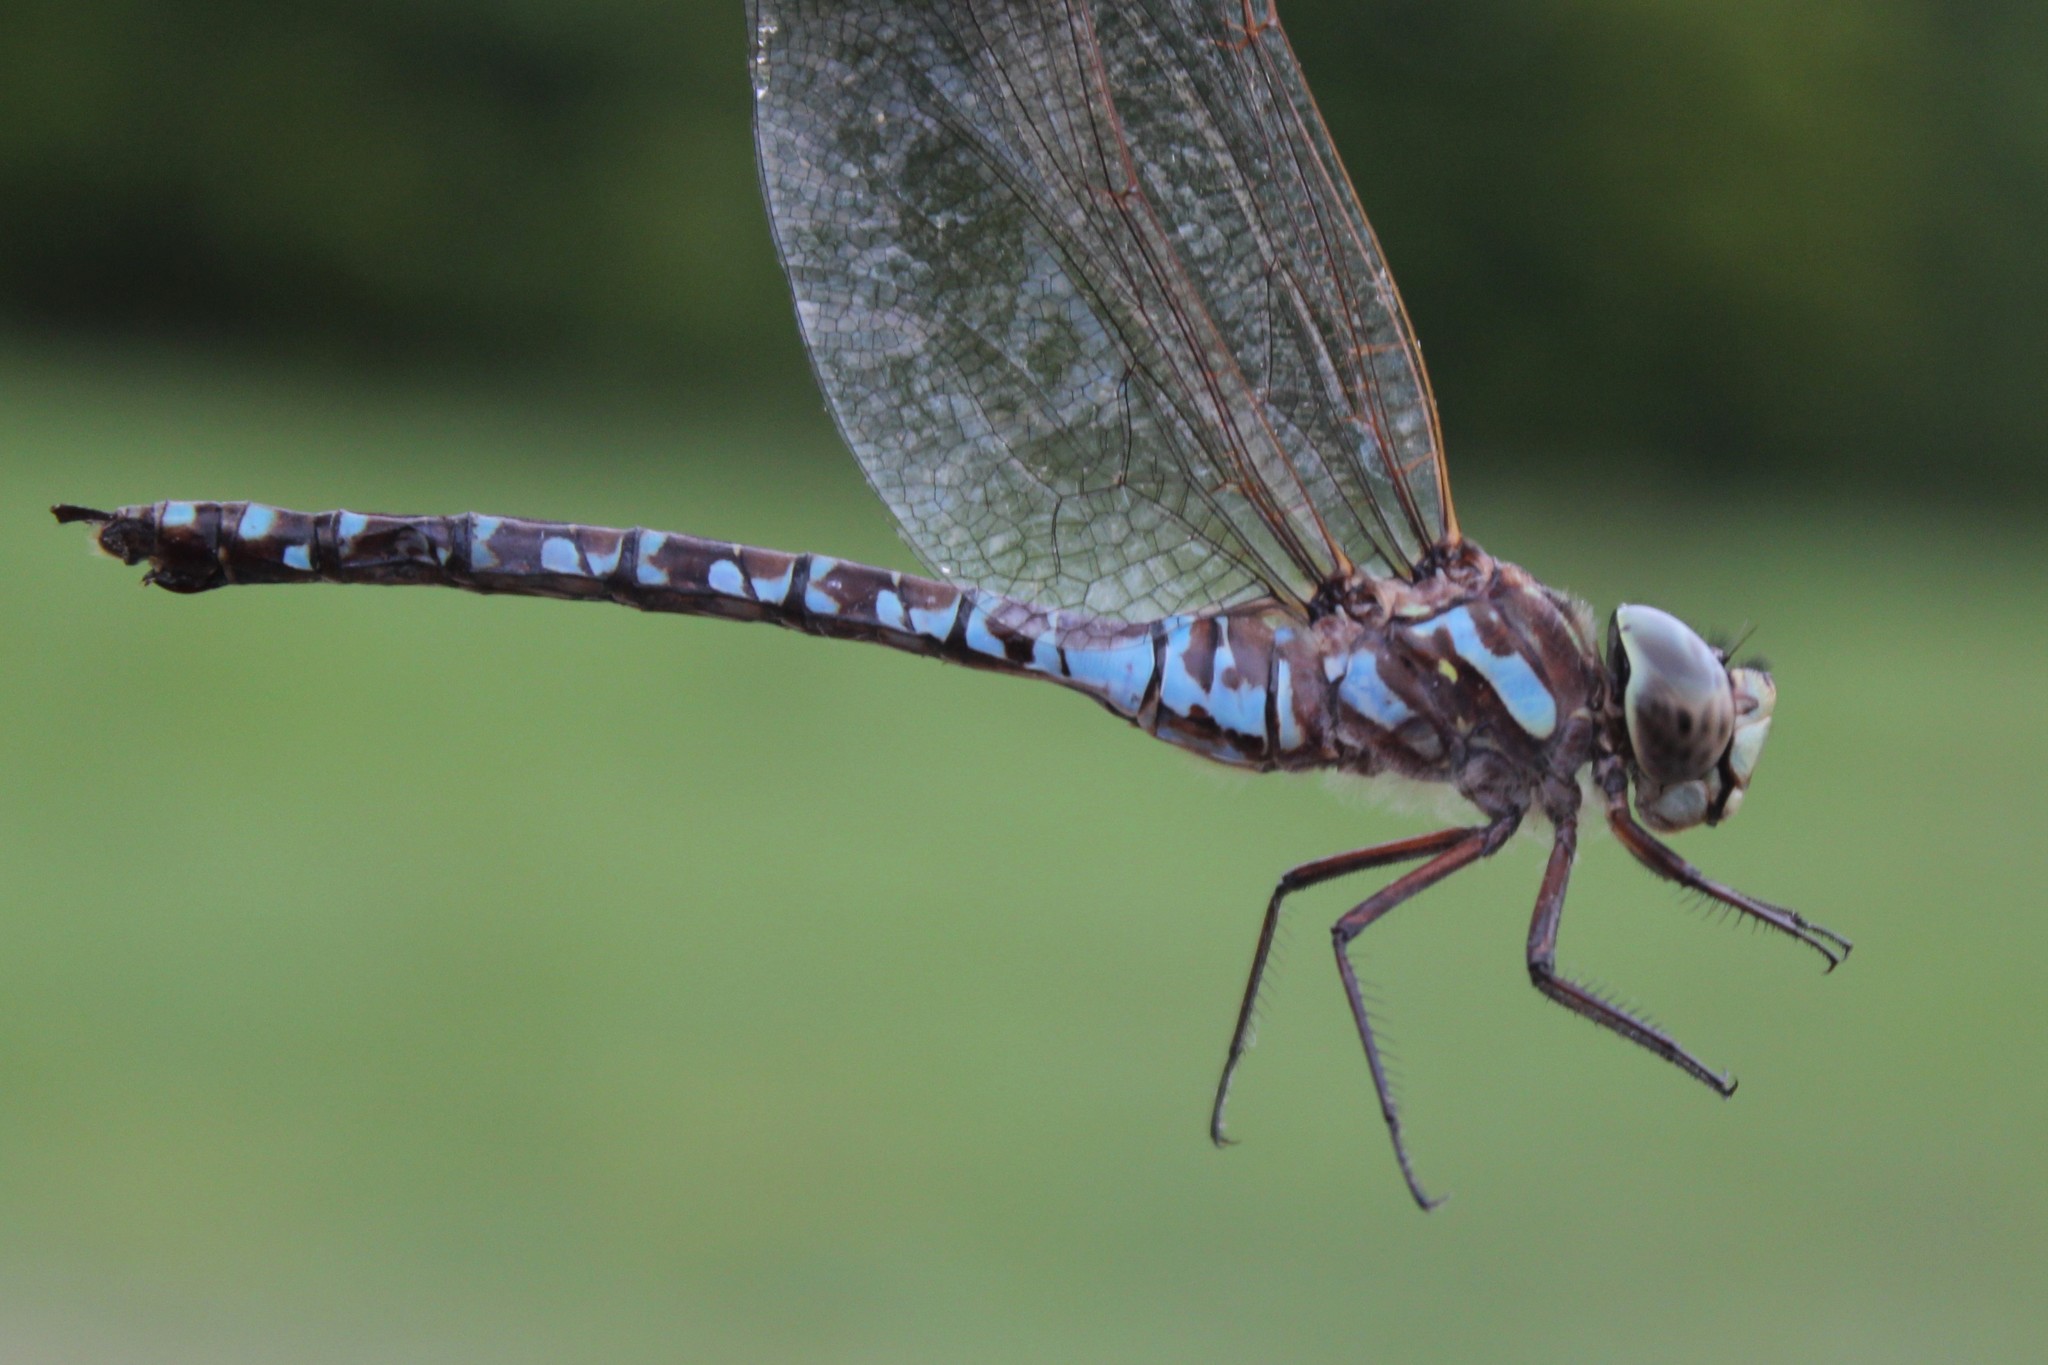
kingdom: Animalia
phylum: Arthropoda
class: Insecta
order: Odonata
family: Aeshnidae
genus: Aeshna
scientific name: Aeshna canadensis
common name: Canada darner
